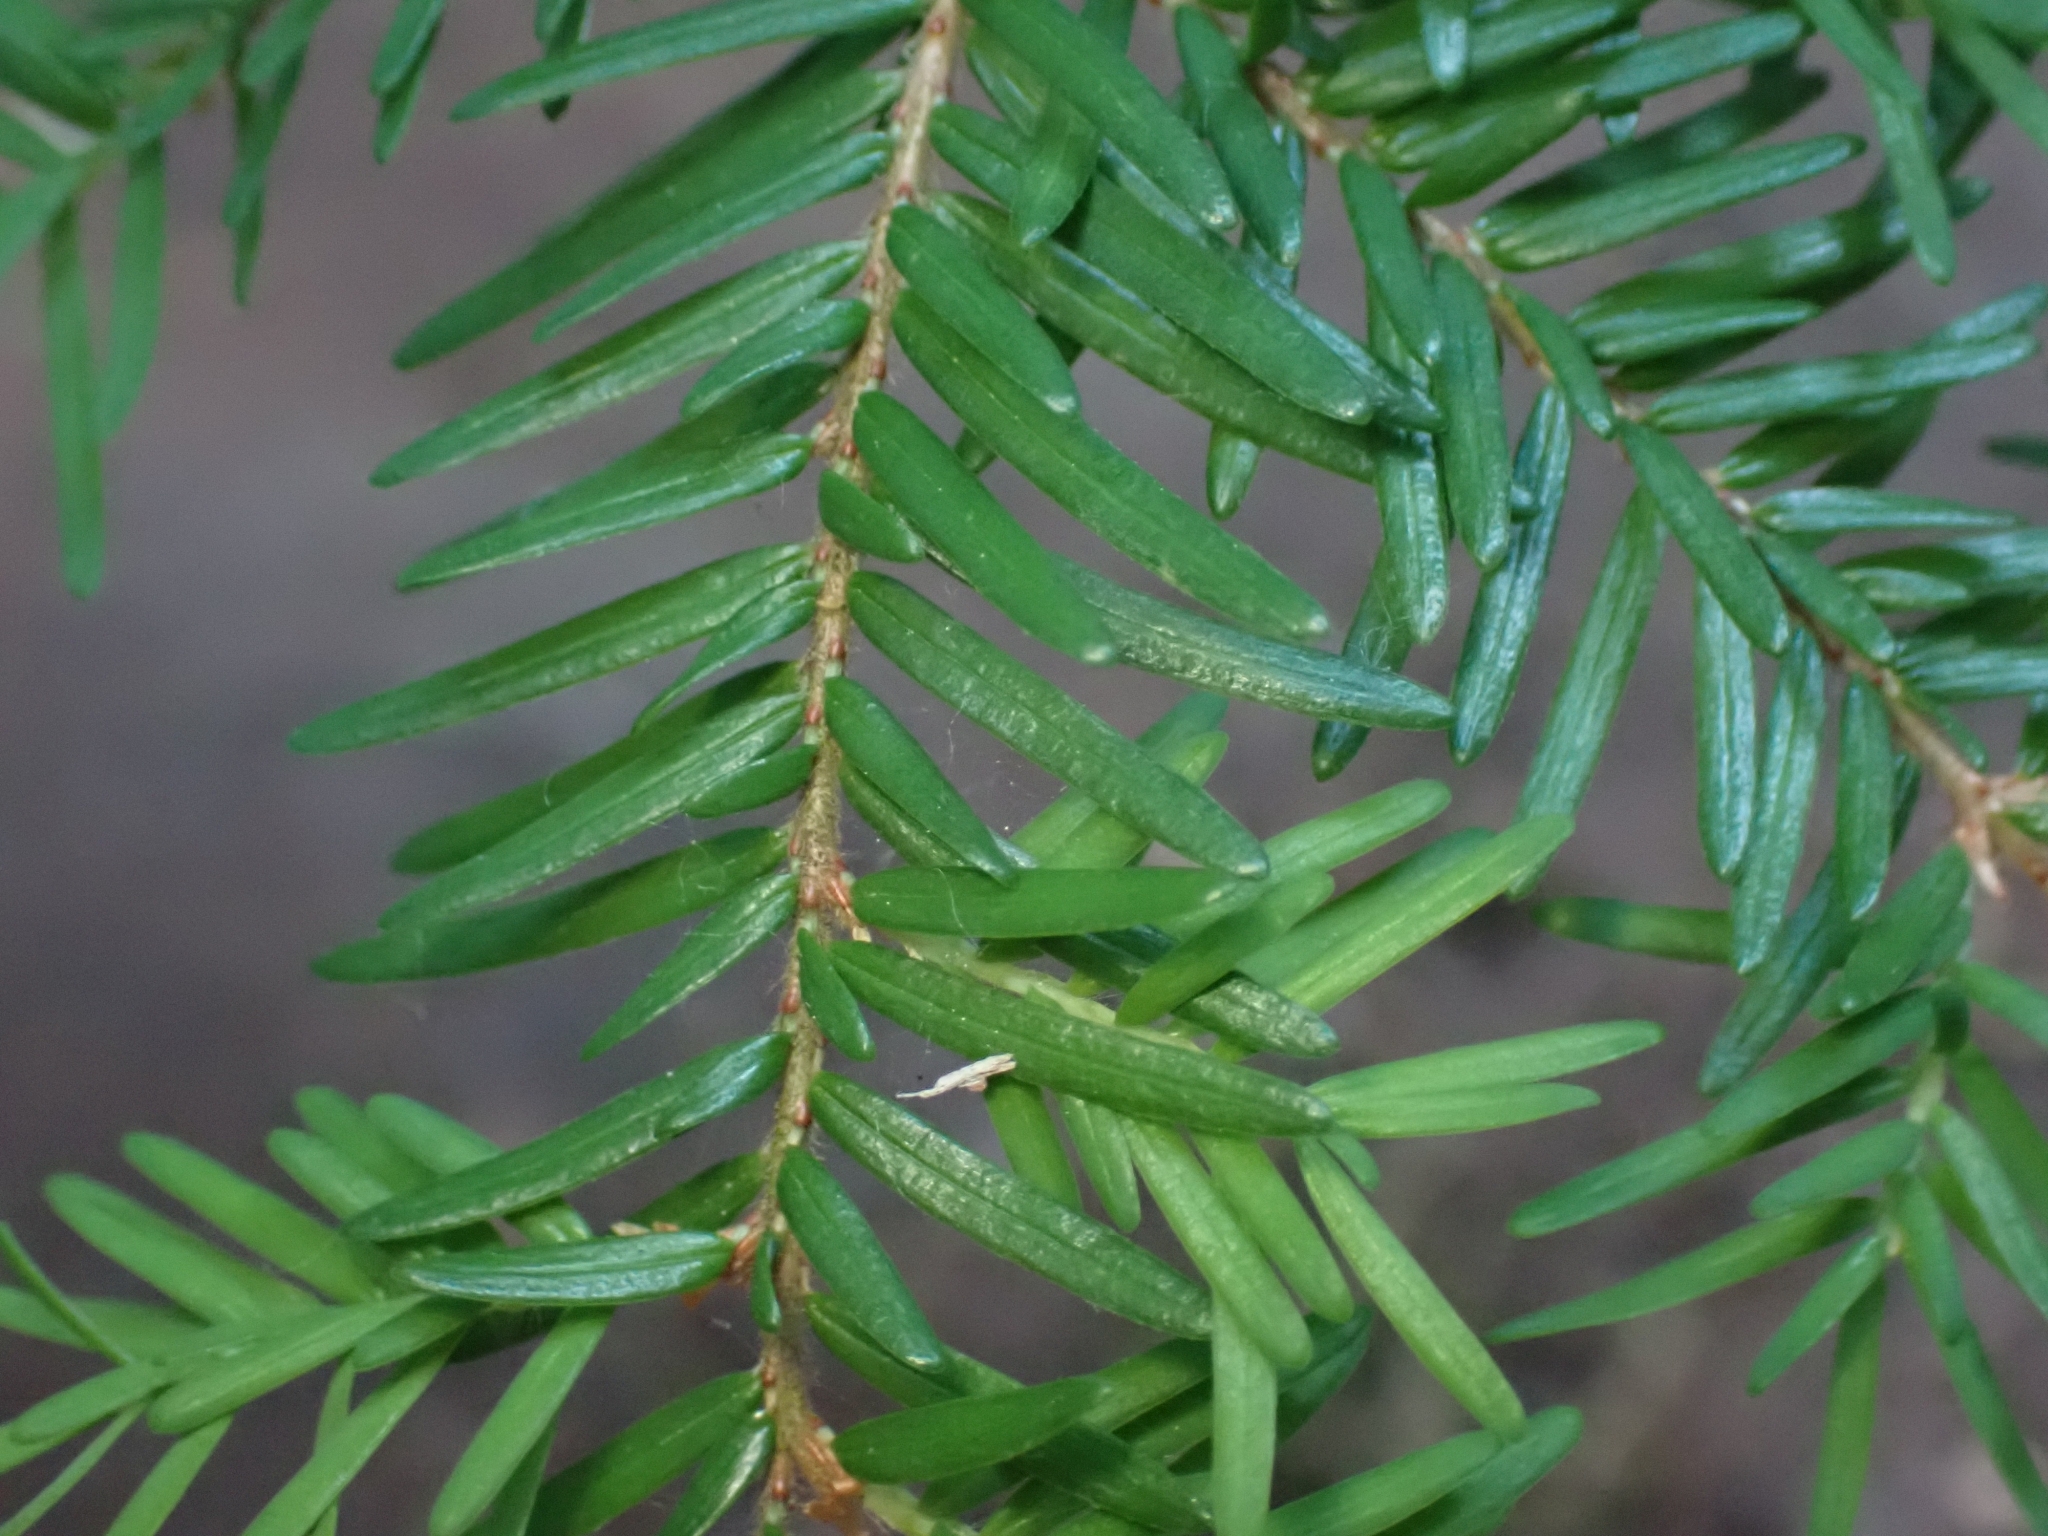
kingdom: Plantae
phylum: Tracheophyta
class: Pinopsida
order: Pinales
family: Pinaceae
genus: Tsuga
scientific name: Tsuga heterophylla
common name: Western hemlock
